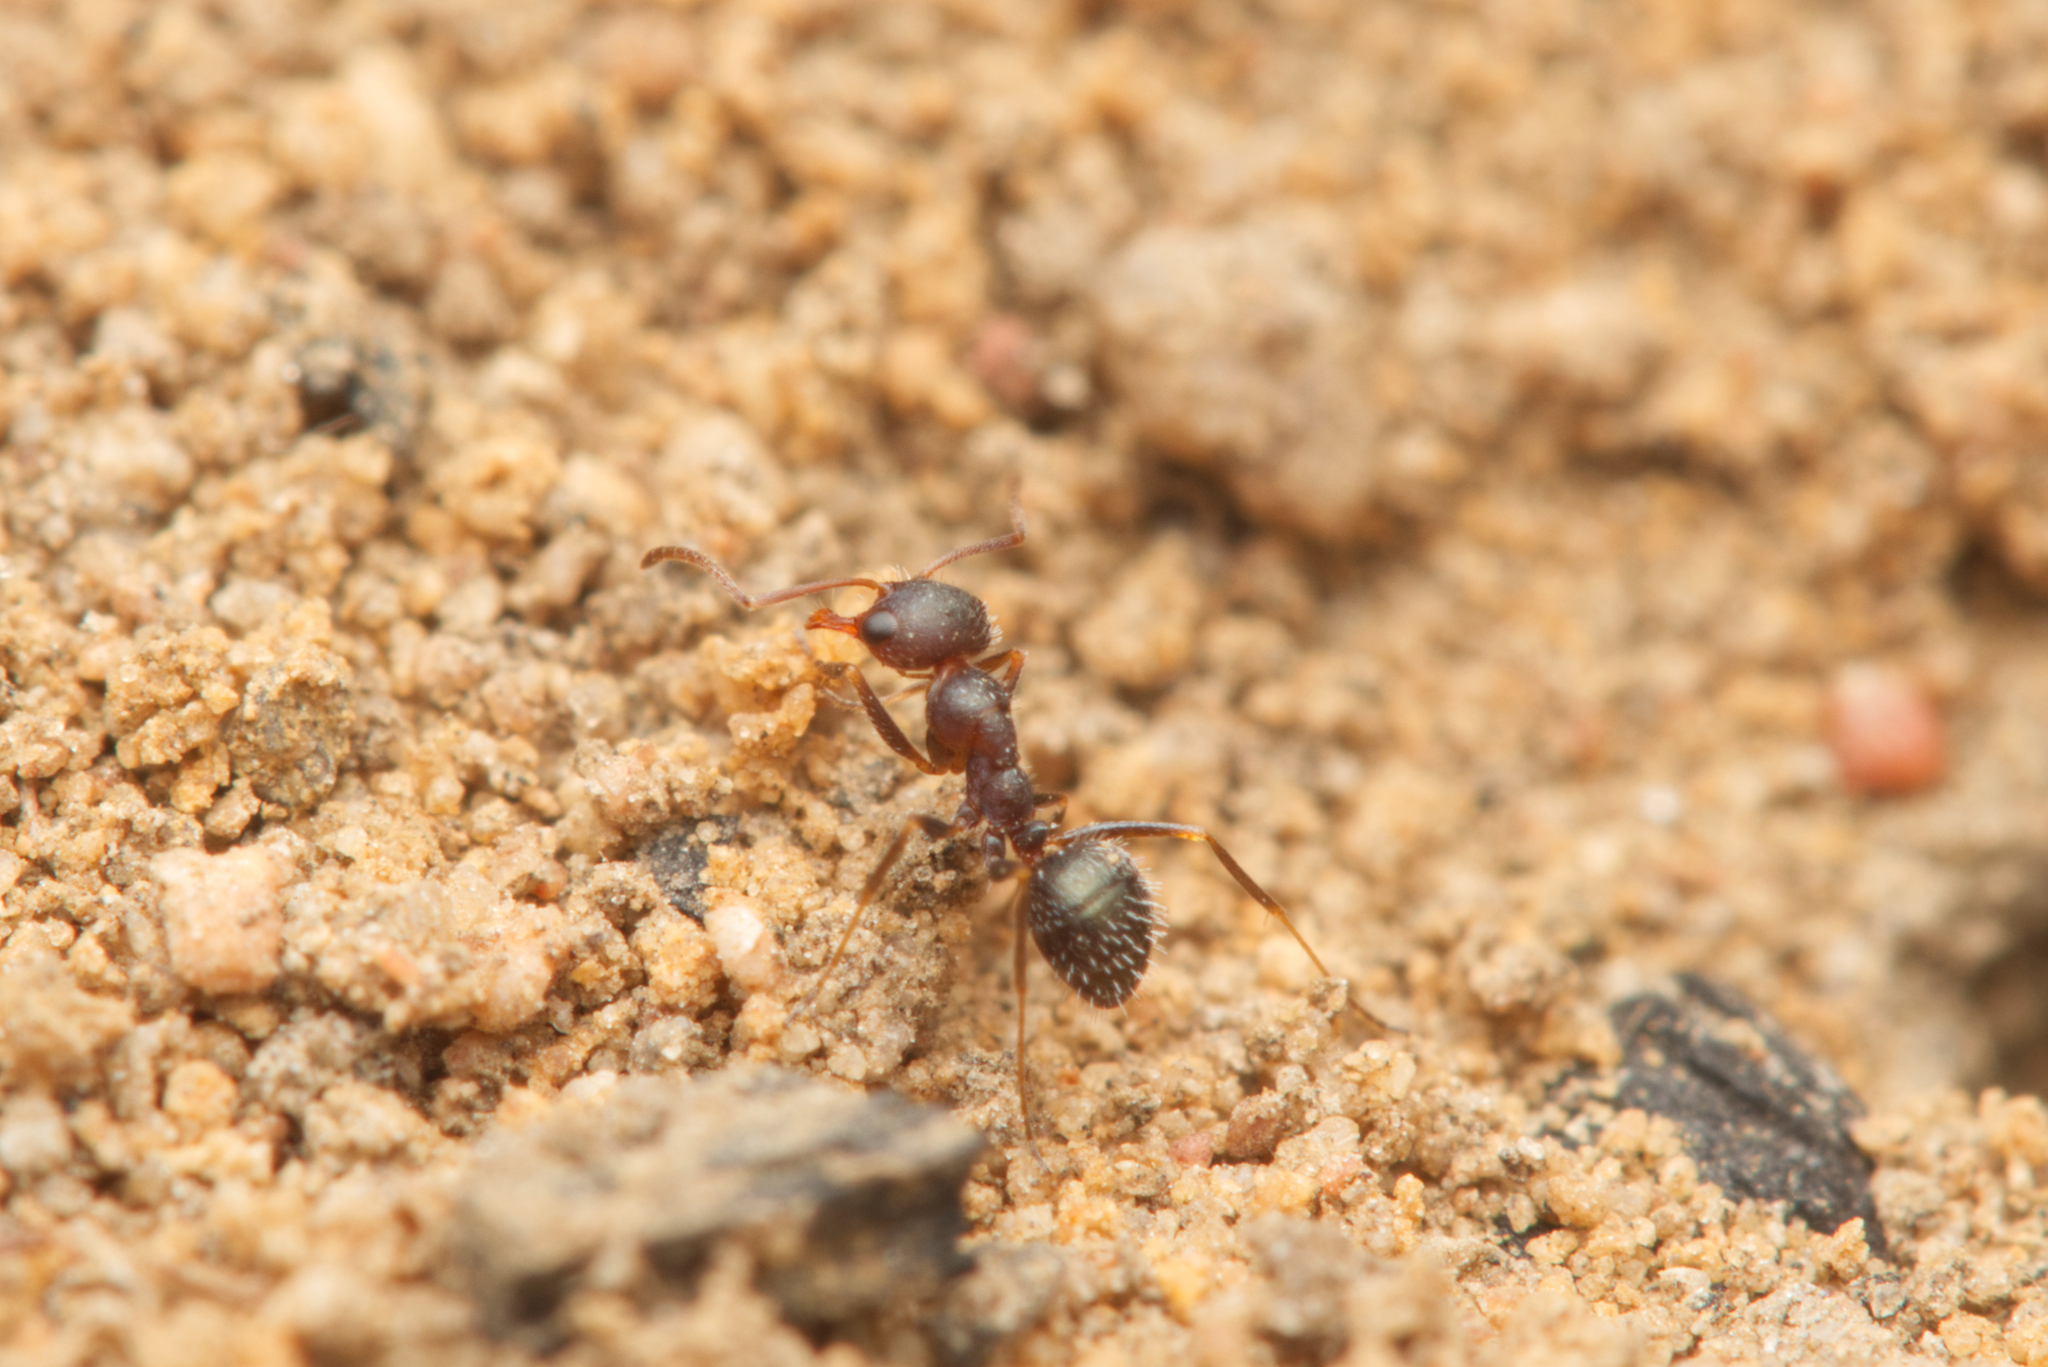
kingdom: Animalia
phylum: Arthropoda
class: Insecta
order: Hymenoptera
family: Formicidae
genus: Melophorus
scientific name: Melophorus bruneus
